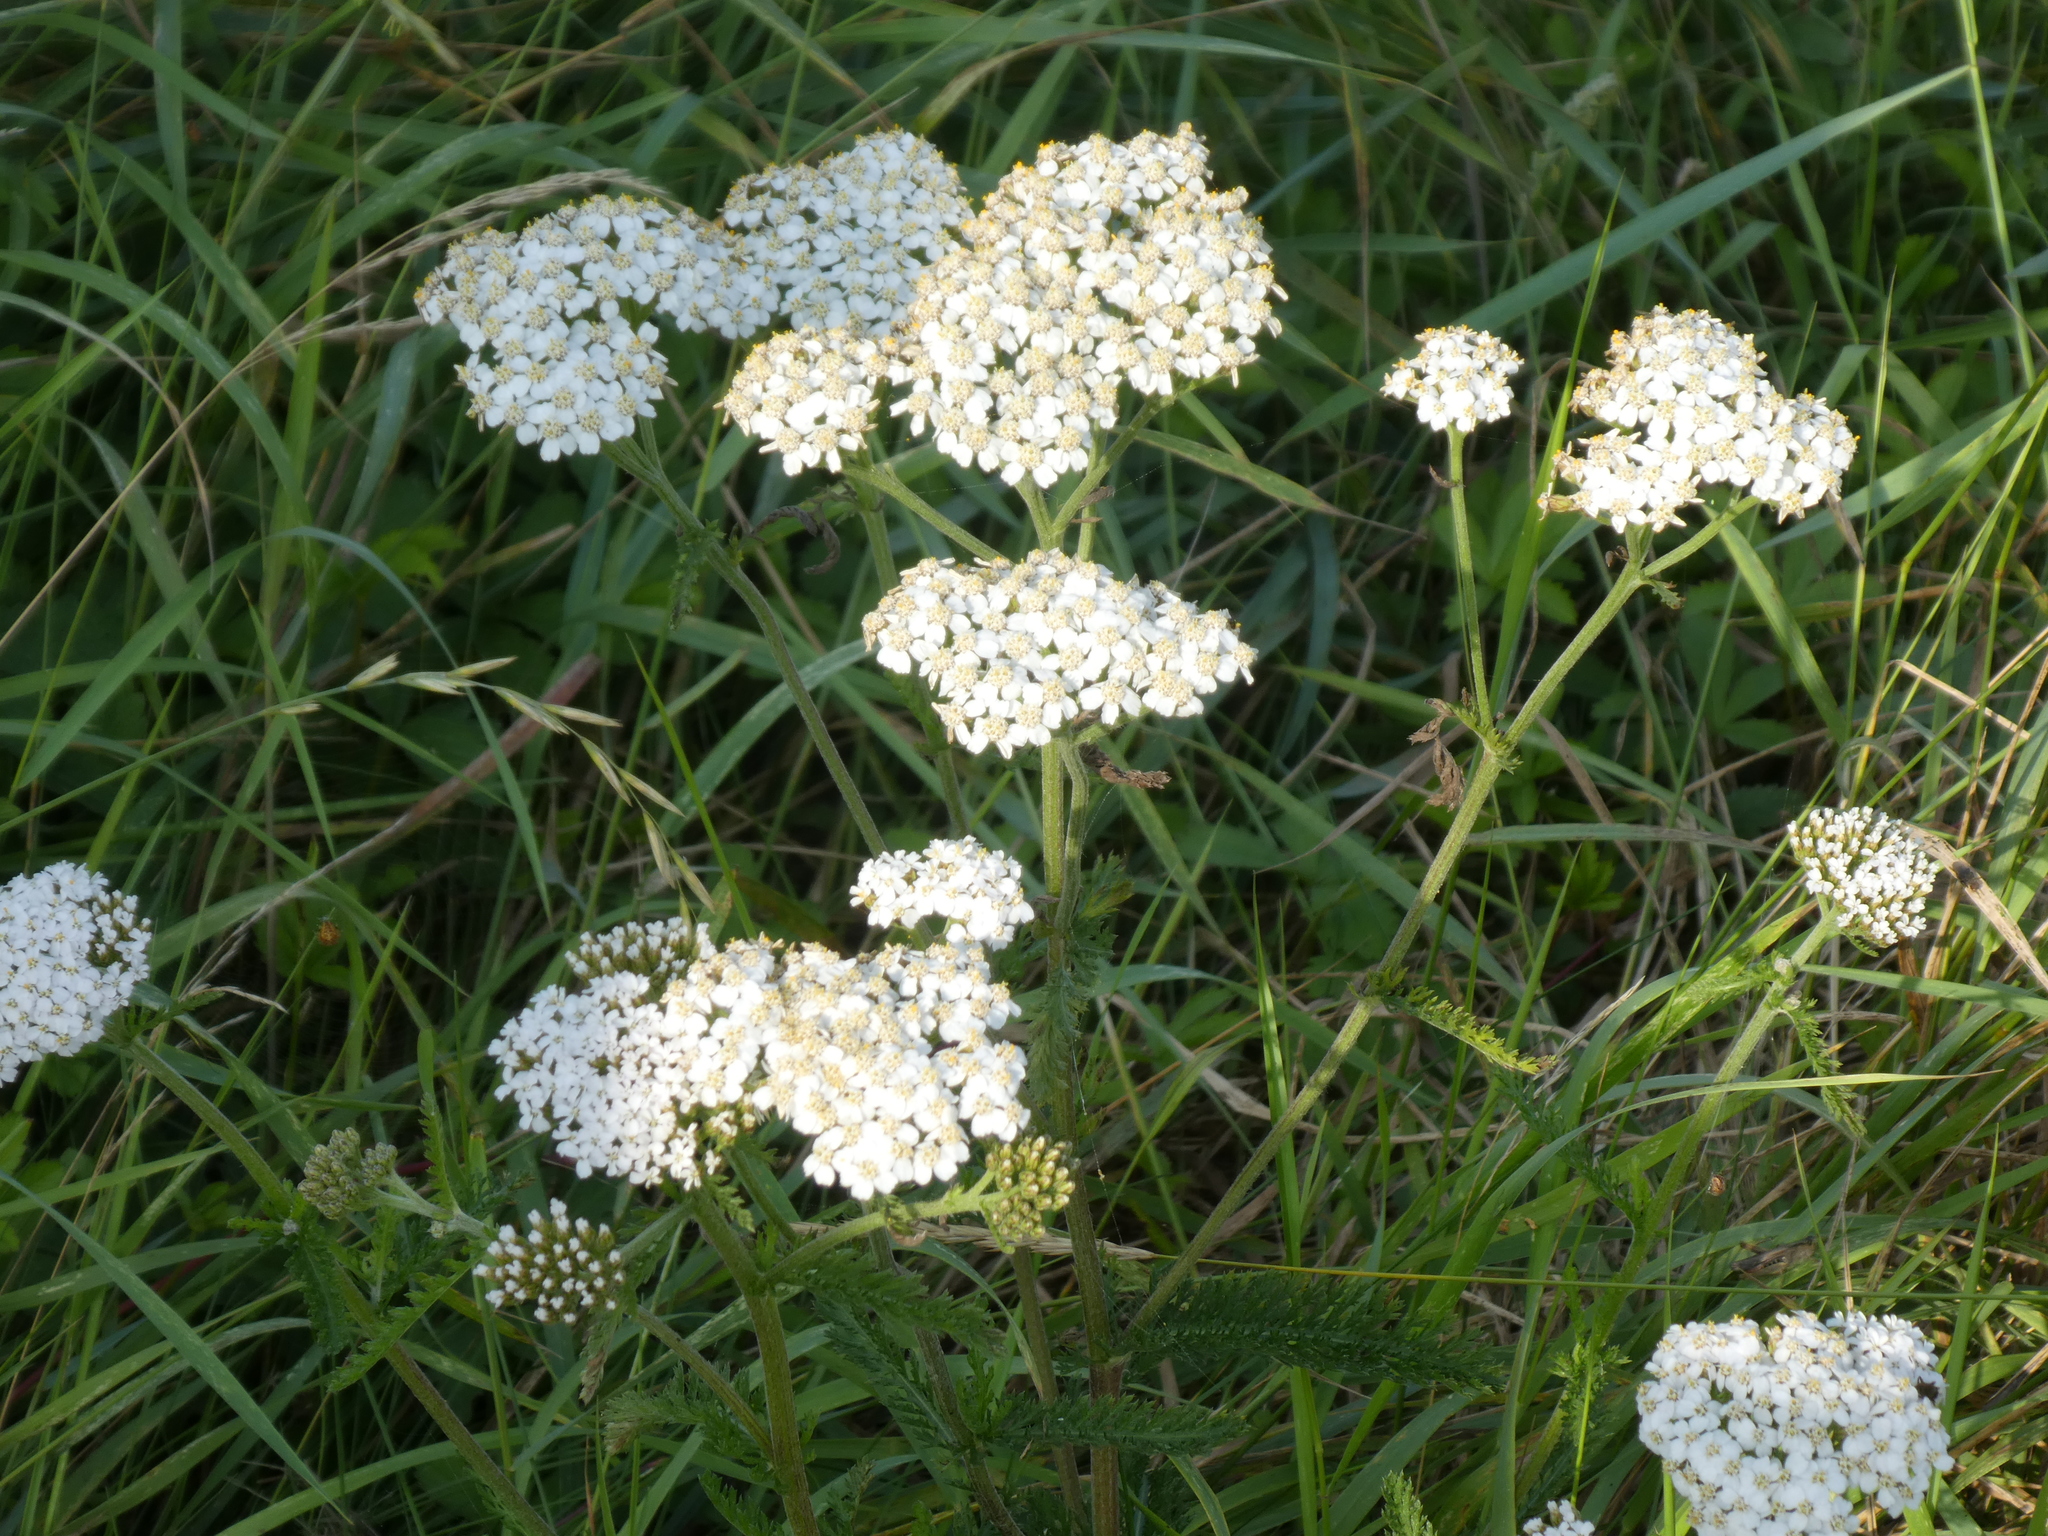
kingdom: Plantae
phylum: Tracheophyta
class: Magnoliopsida
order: Asterales
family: Asteraceae
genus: Achillea
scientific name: Achillea millefolium
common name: Yarrow
